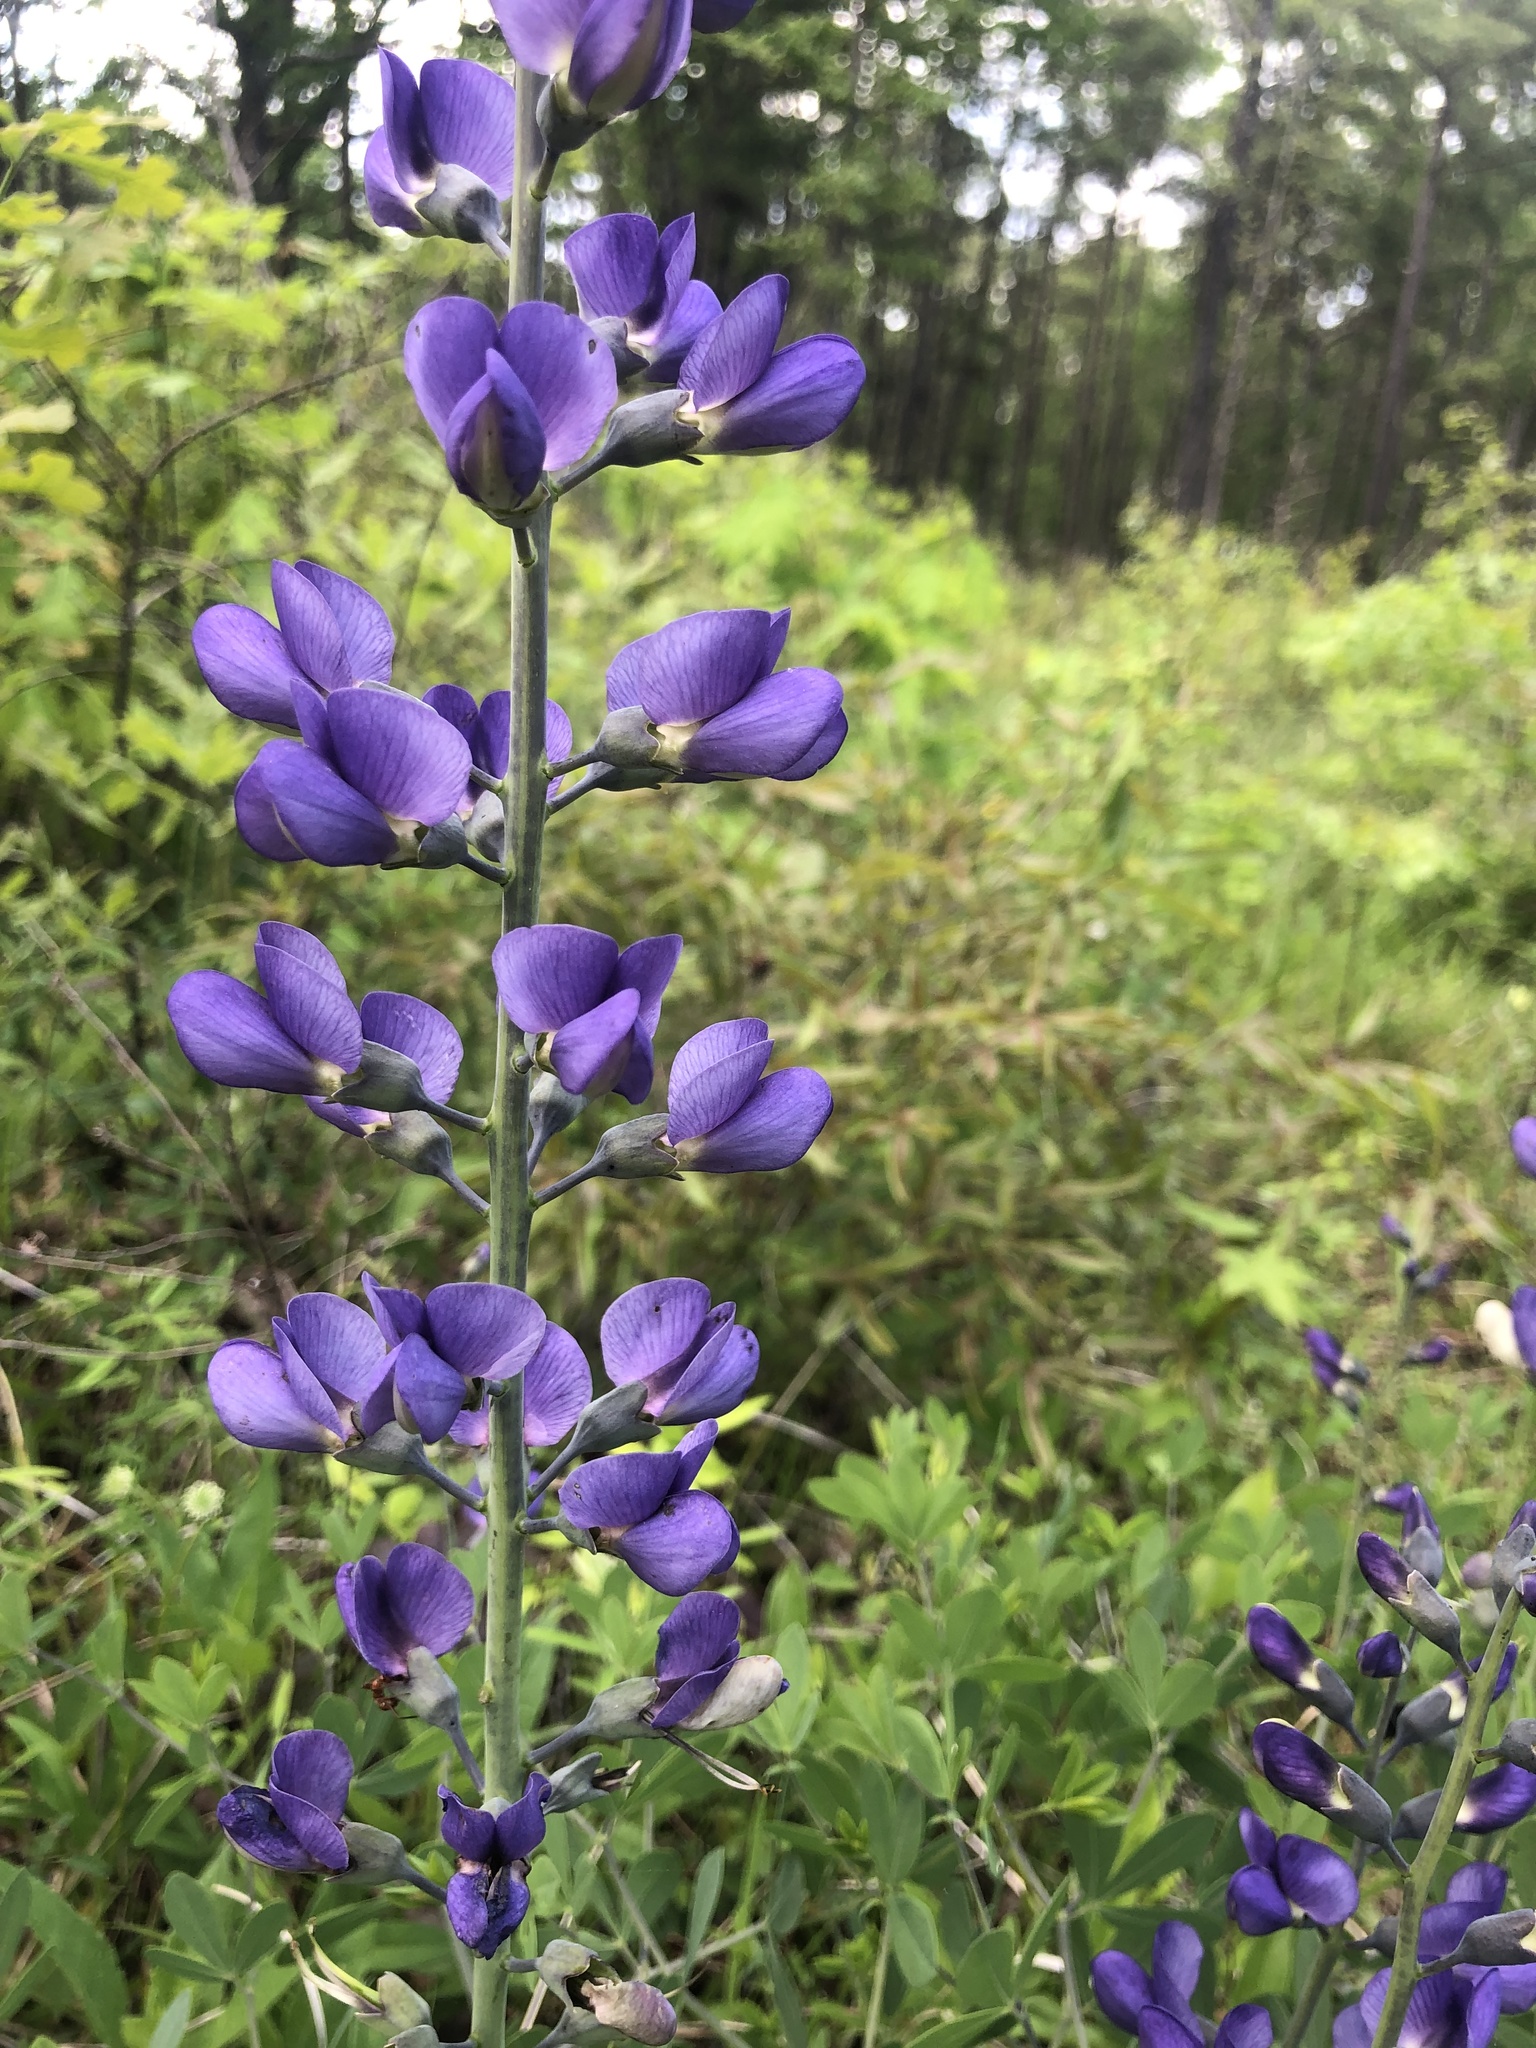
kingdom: Plantae
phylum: Tracheophyta
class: Magnoliopsida
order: Fabales
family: Fabaceae
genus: Baptisia
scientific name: Baptisia aberrans
